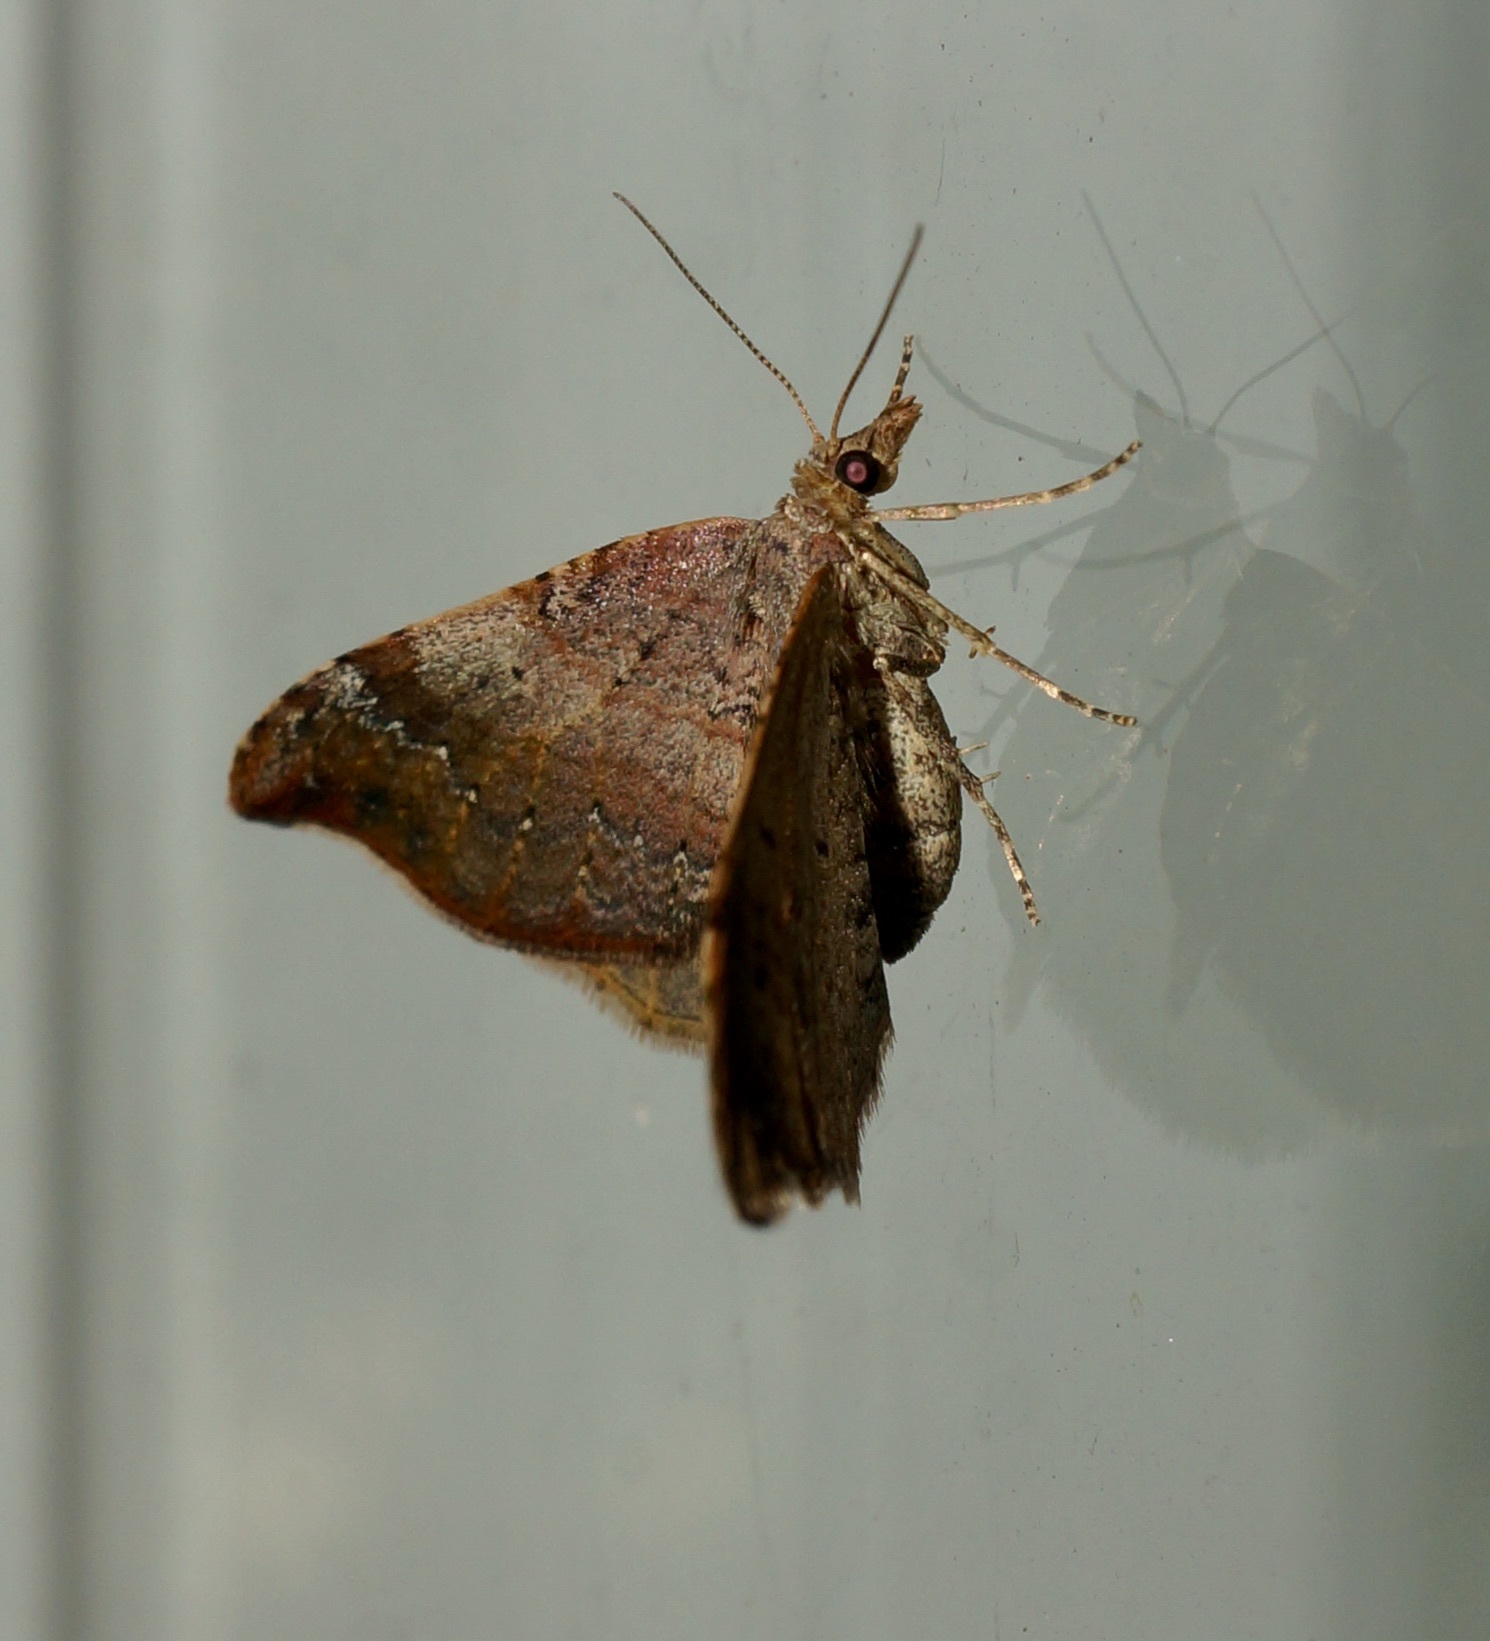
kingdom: Animalia
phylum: Arthropoda
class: Insecta
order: Lepidoptera
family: Geometridae
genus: Homodotis
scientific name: Homodotis megaspilata
